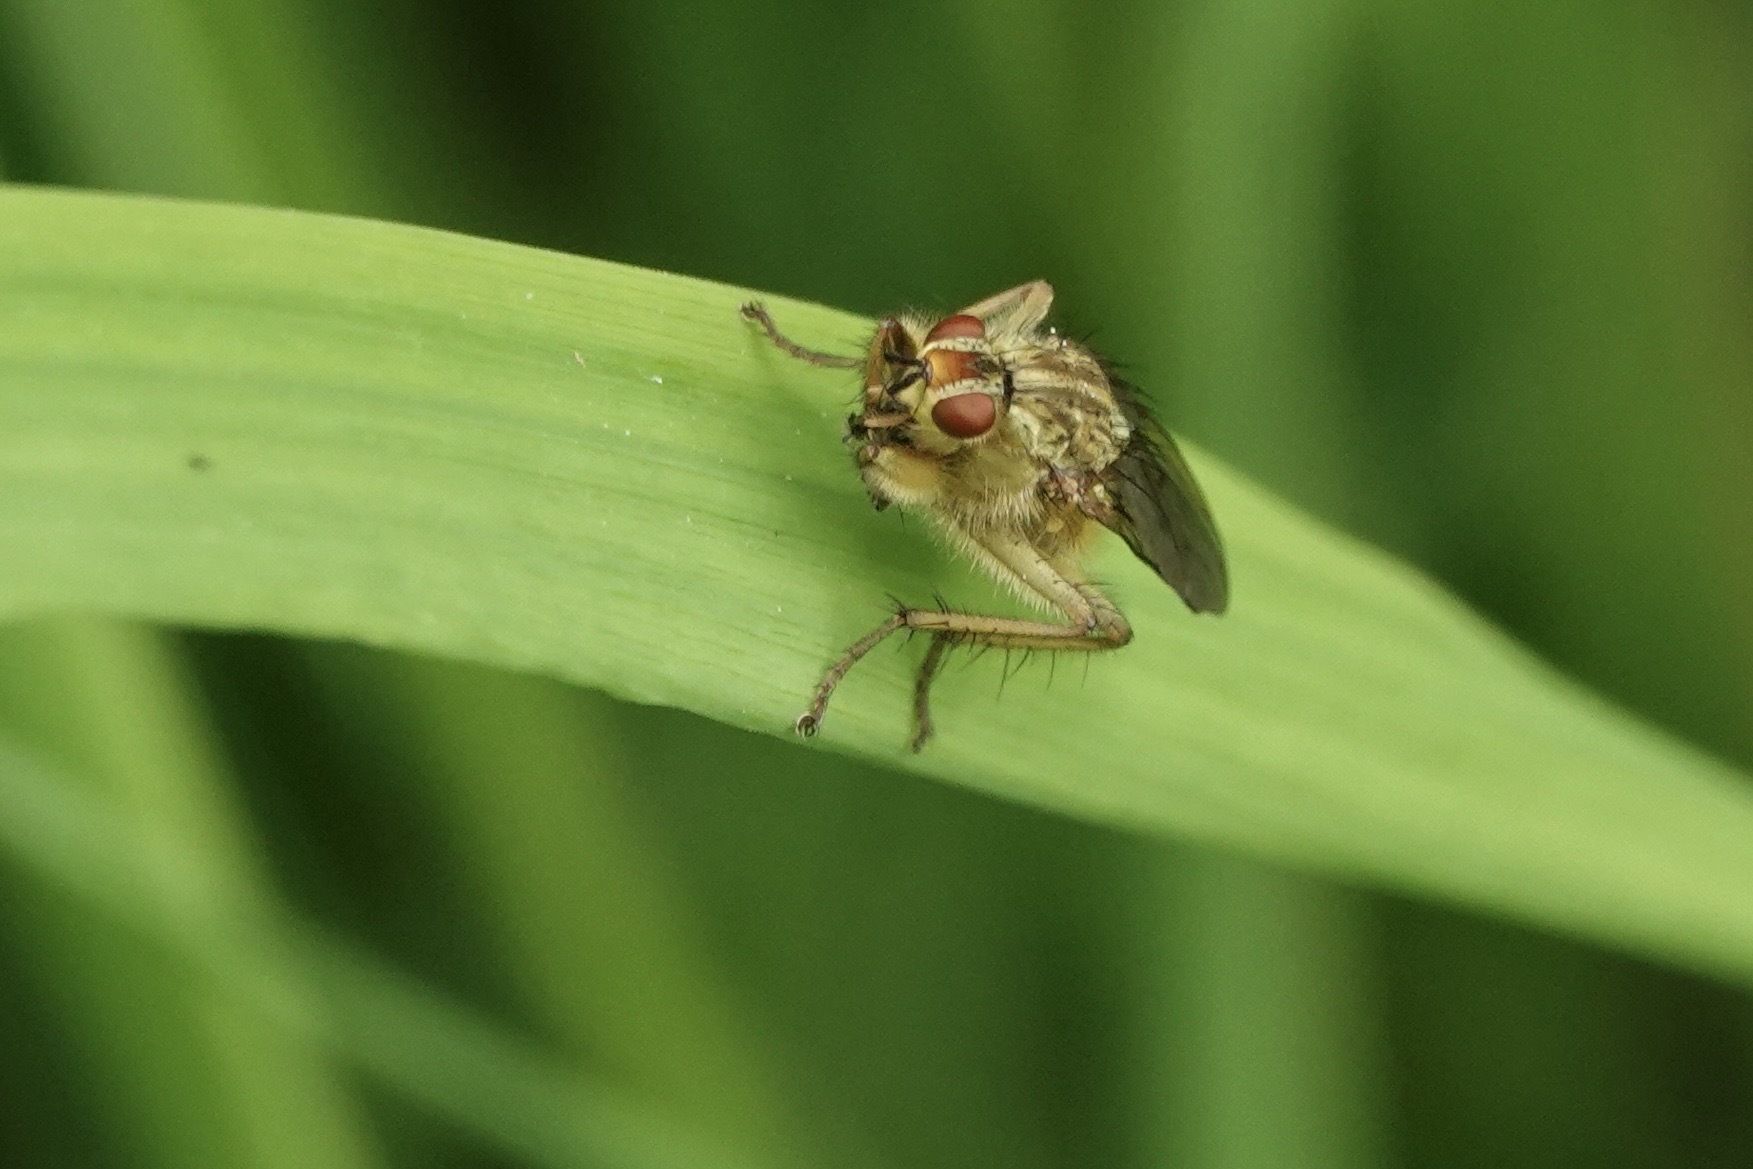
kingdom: Animalia
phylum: Arthropoda
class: Insecta
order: Diptera
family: Scathophagidae
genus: Scathophaga
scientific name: Scathophaga stercoraria
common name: Yellow dung fly
